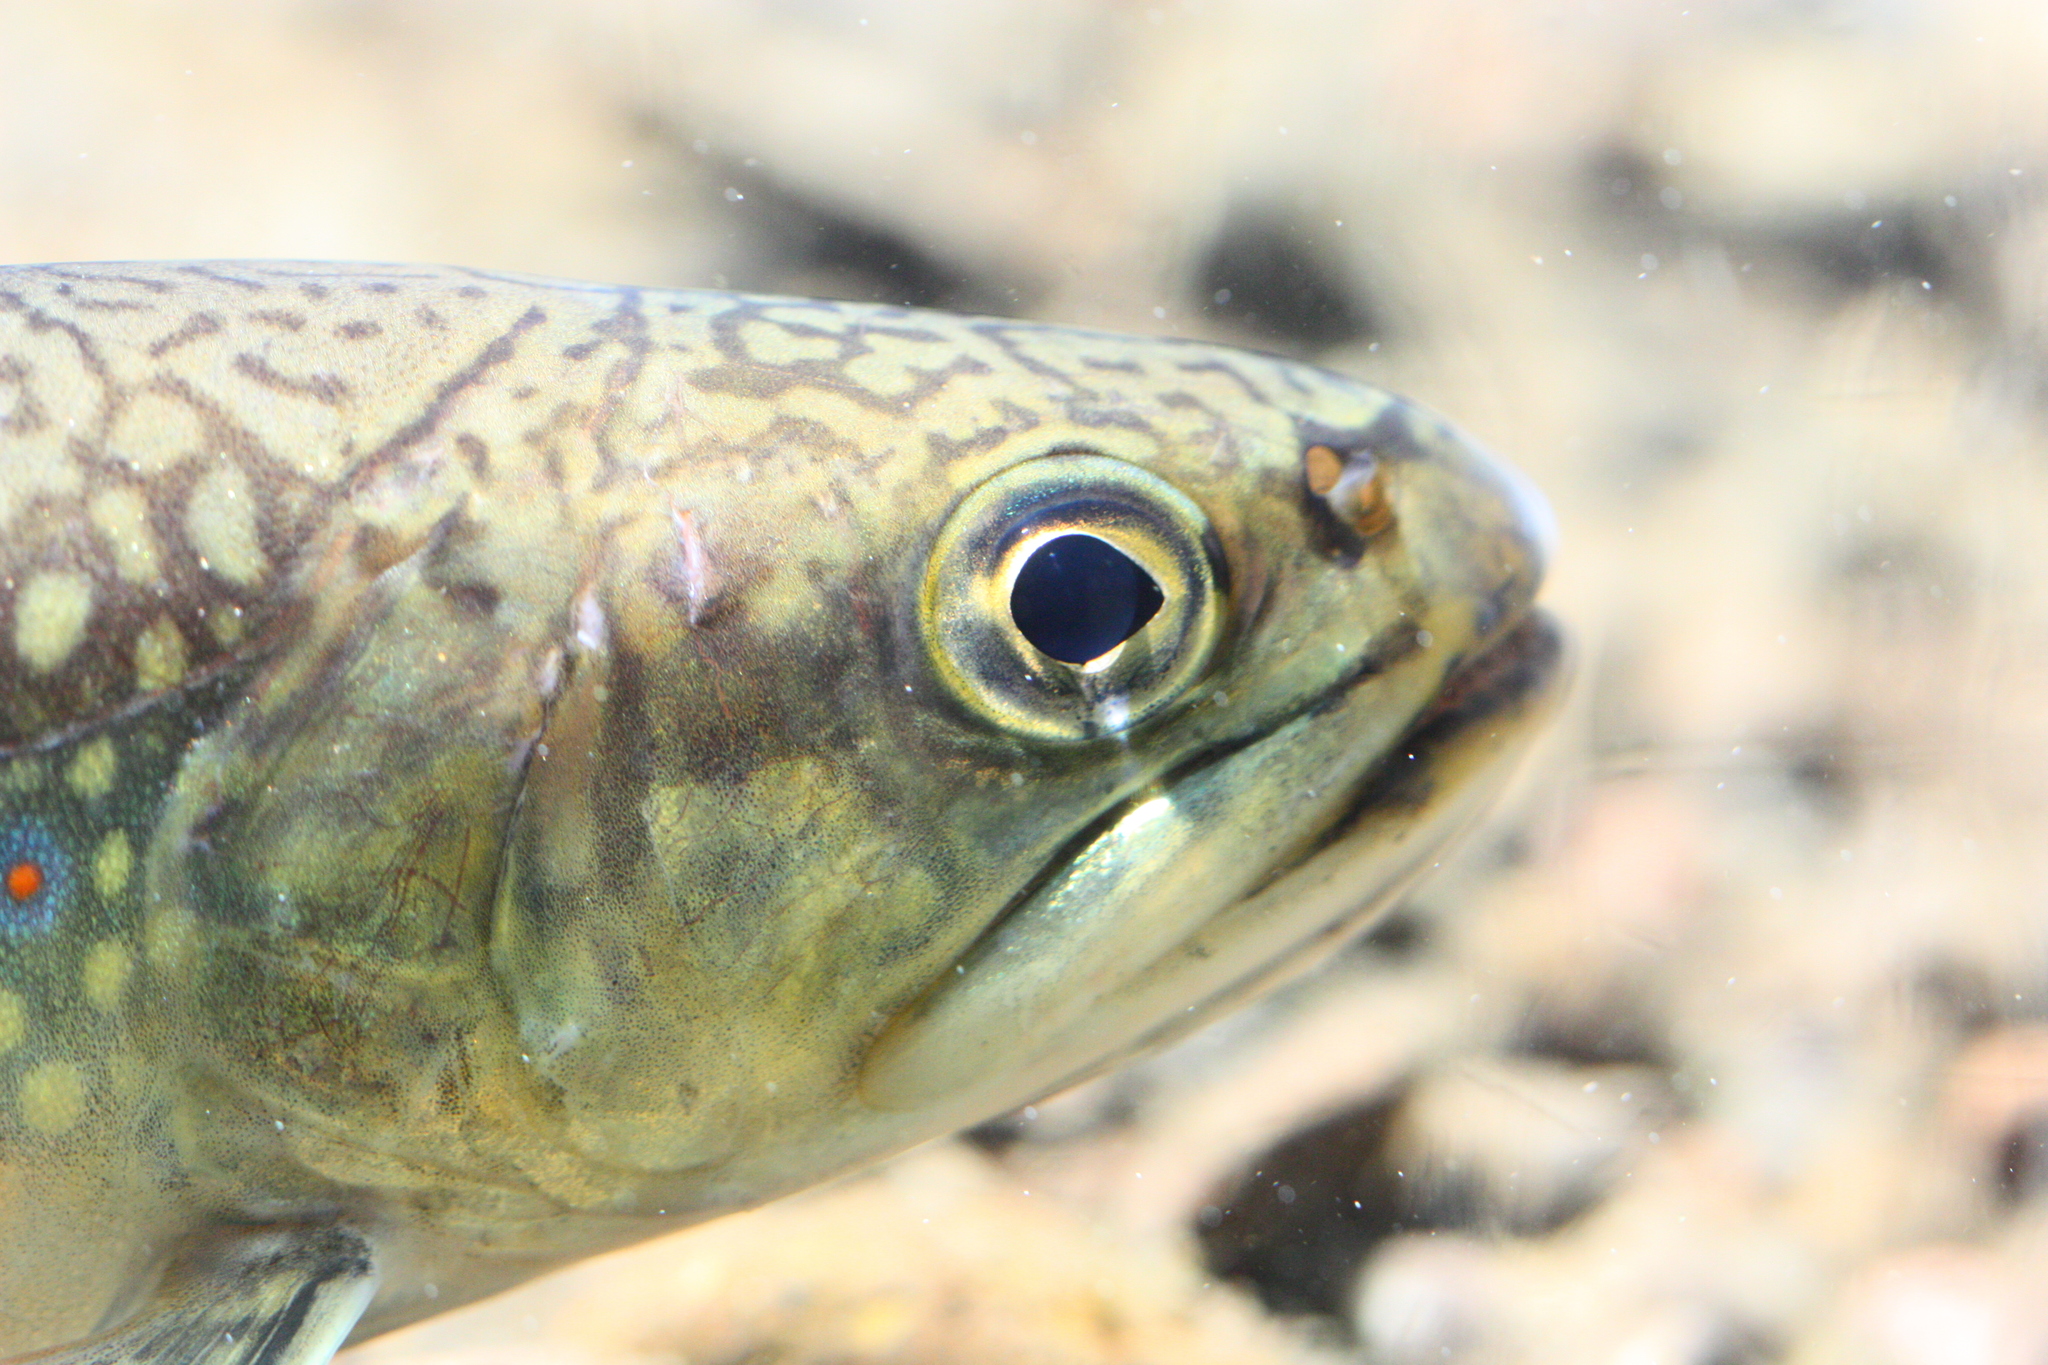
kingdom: Animalia
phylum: Chordata
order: Salmoniformes
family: Salmonidae
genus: Salvelinus
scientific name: Salvelinus fontinalis
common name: Brook trout
